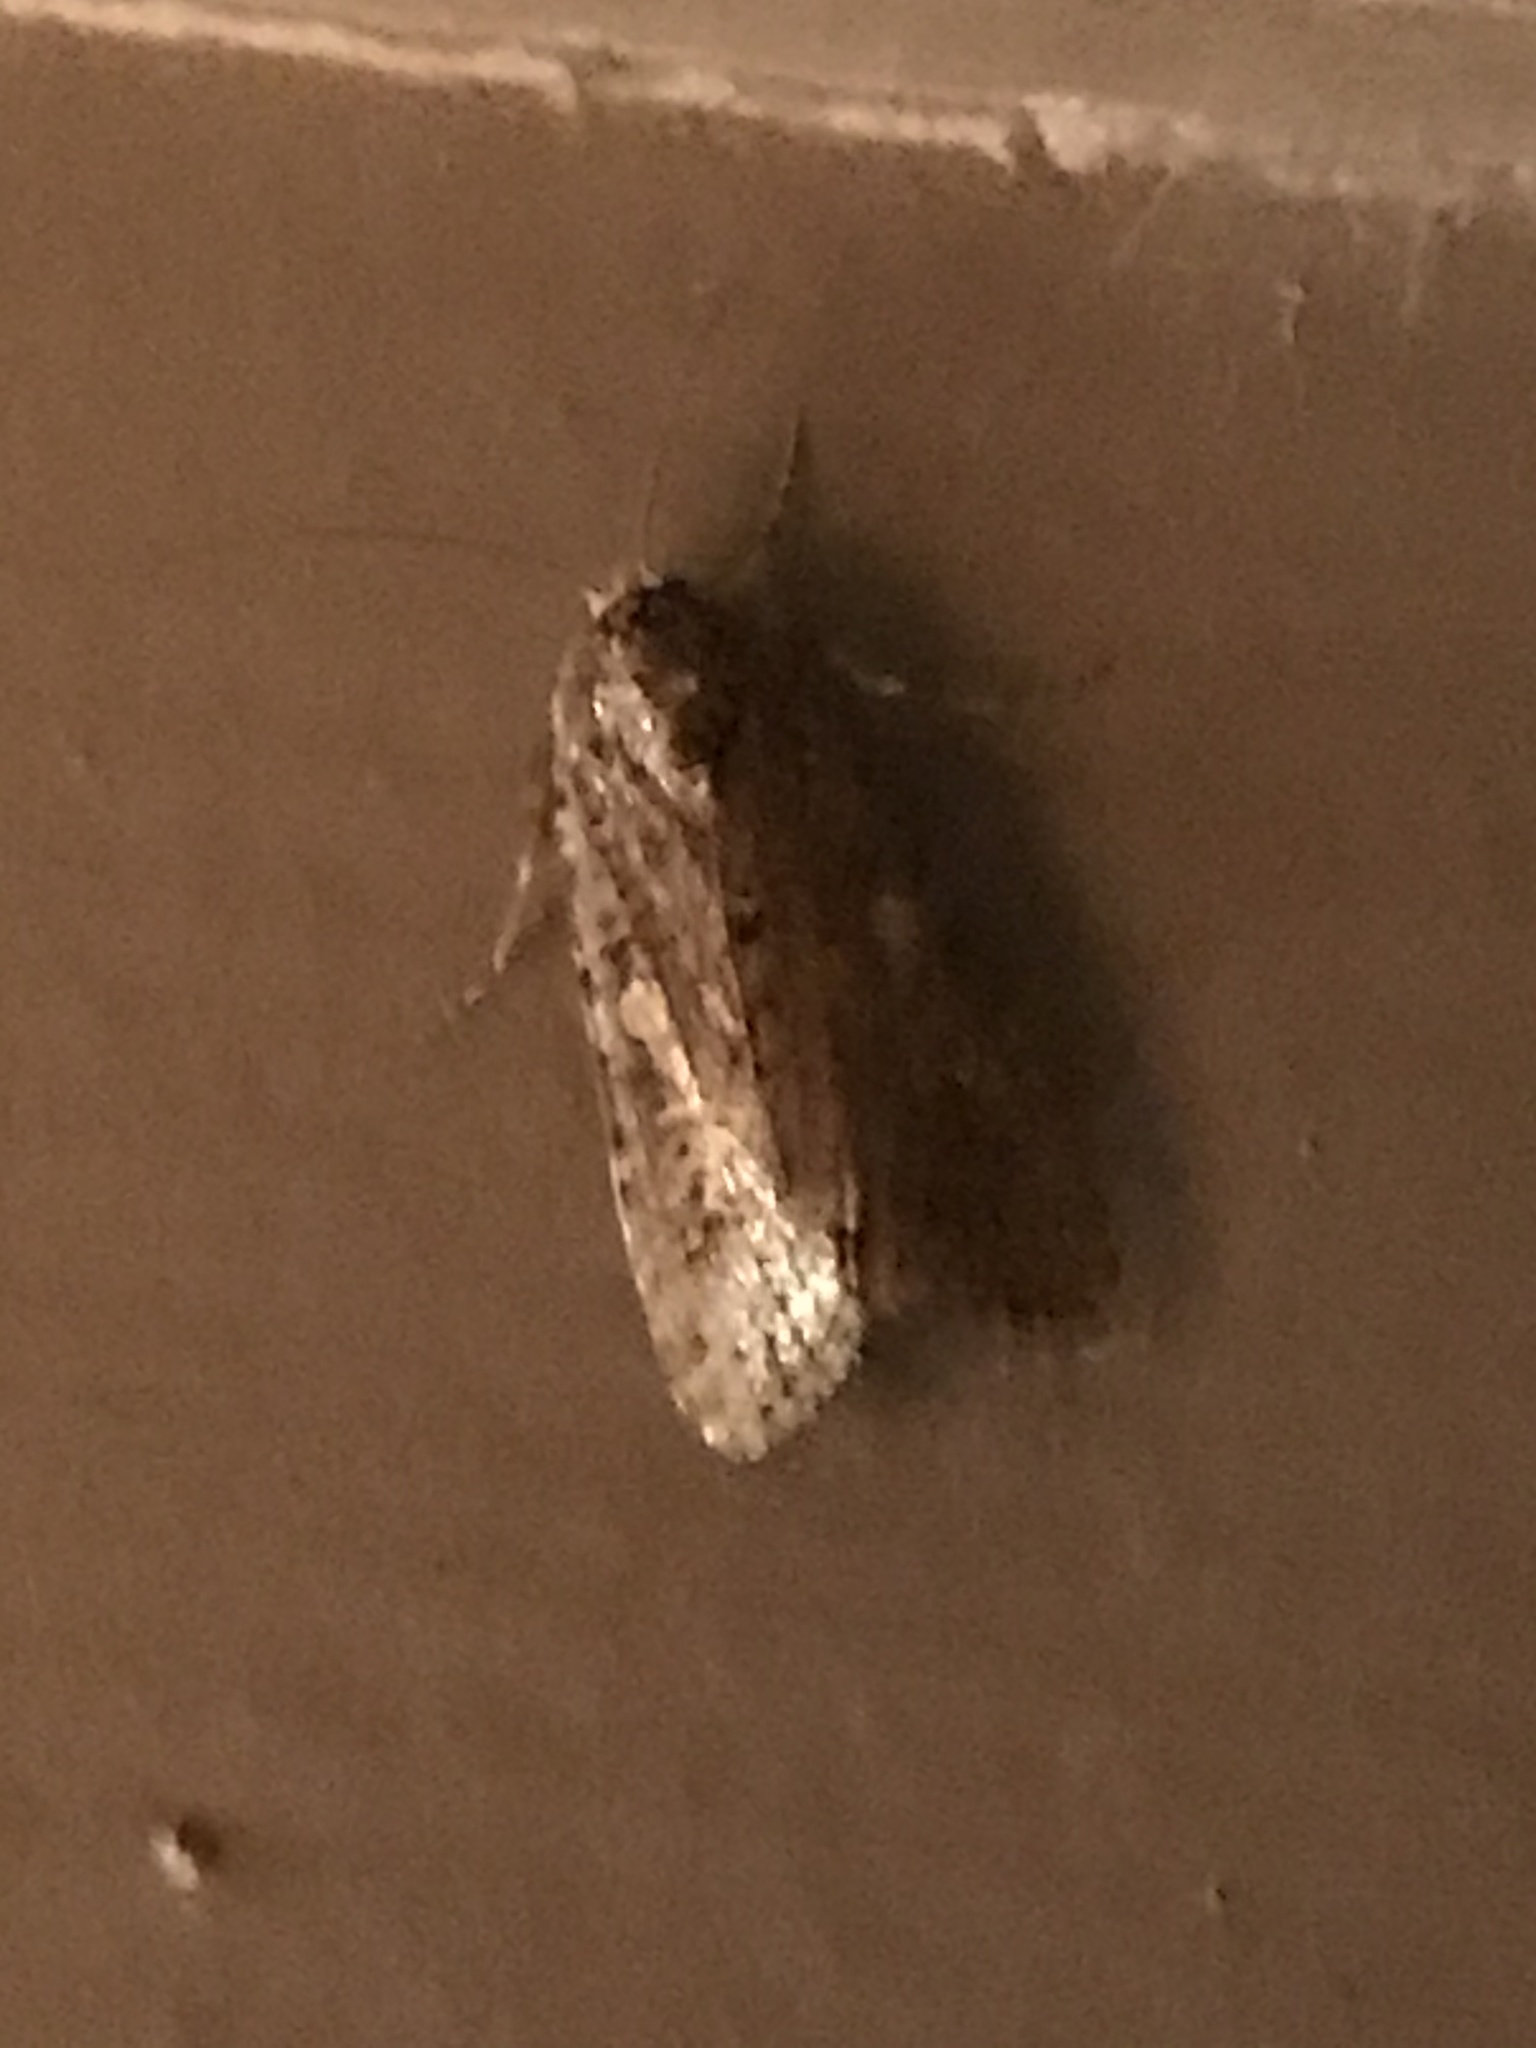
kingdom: Animalia
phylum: Arthropoda
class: Insecta
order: Lepidoptera
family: Noctuidae
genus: Spodoptera
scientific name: Spodoptera exigua
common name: Beet armyworm
